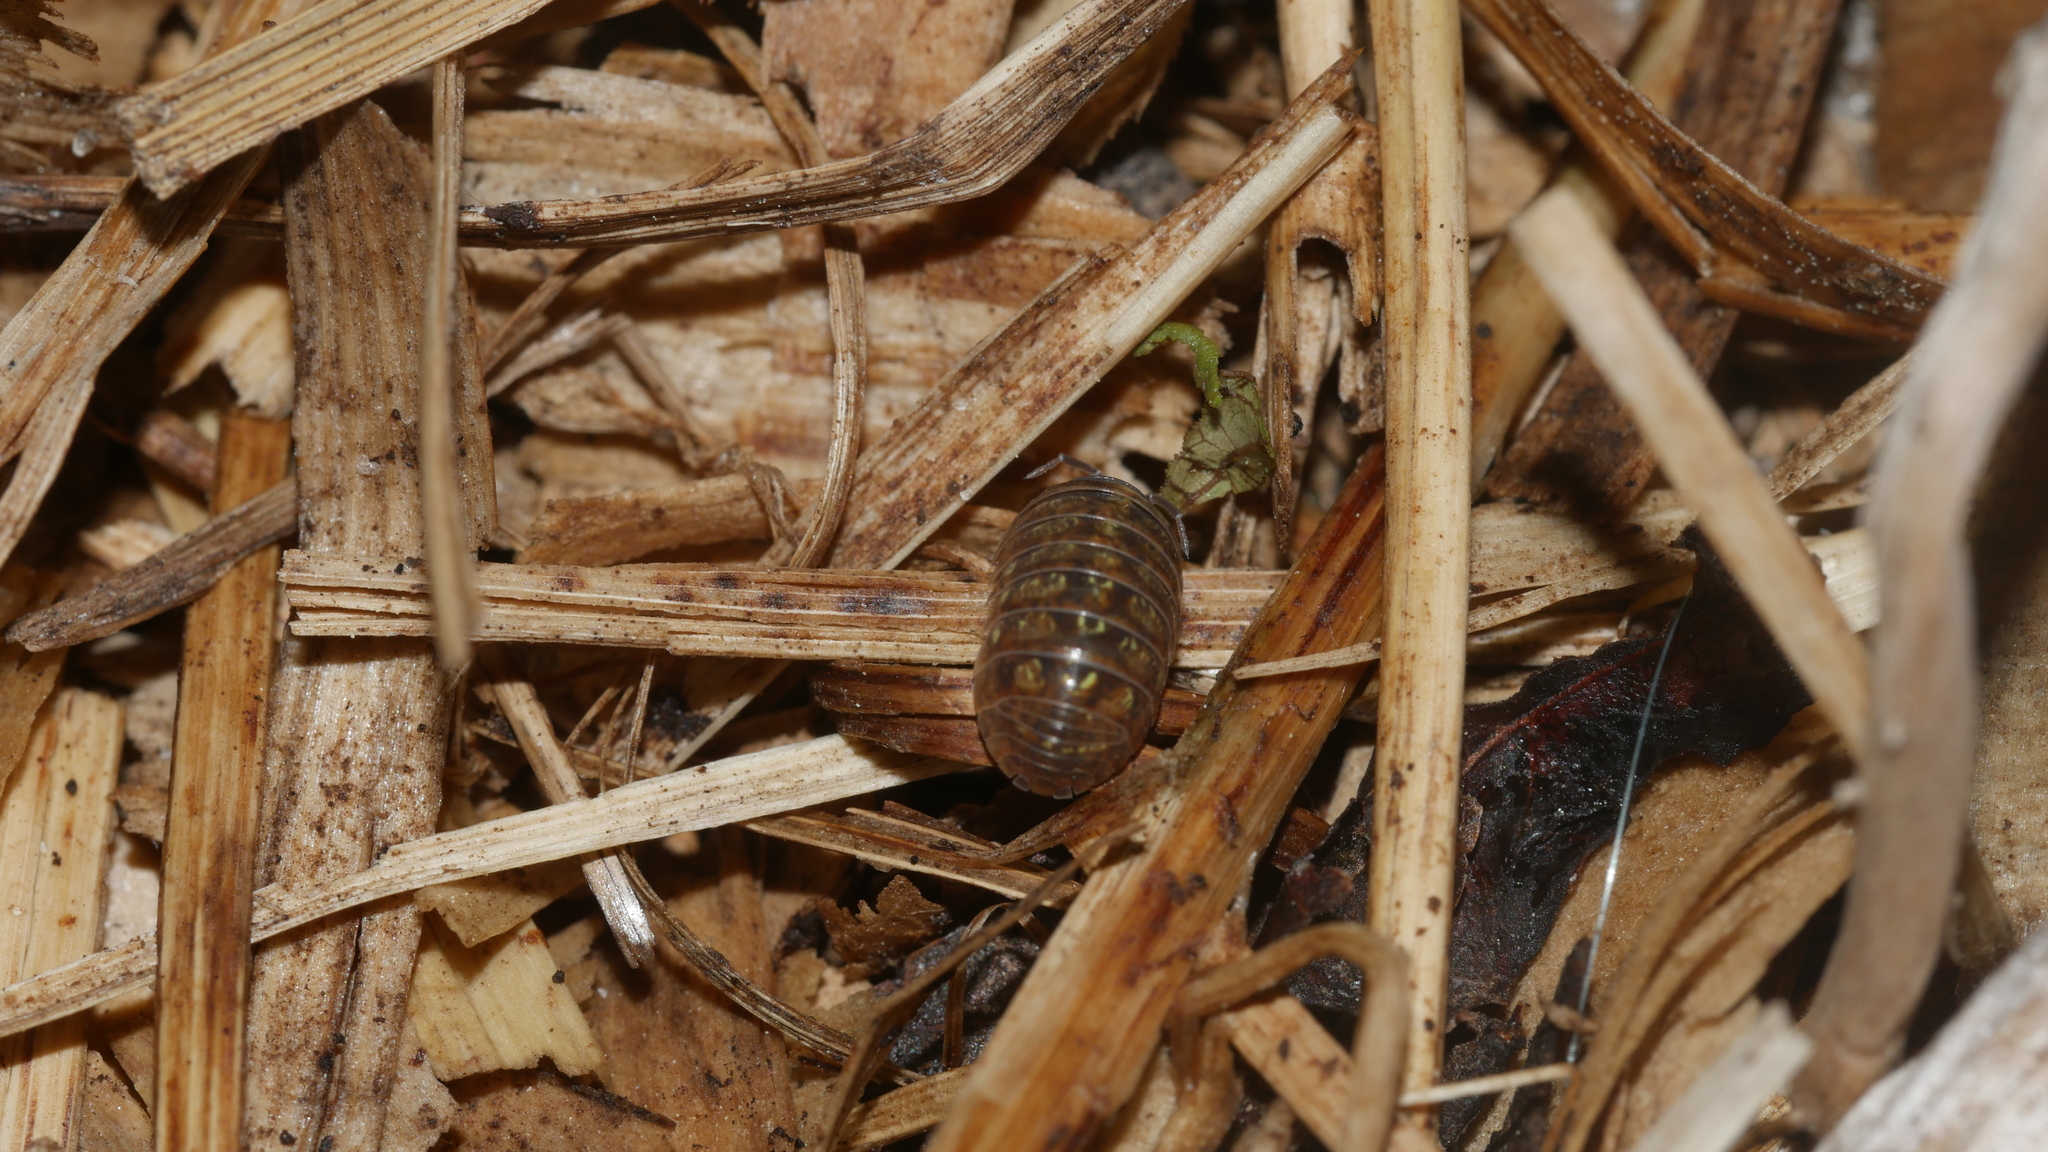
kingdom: Animalia
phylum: Arthropoda
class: Malacostraca
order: Isopoda
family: Armadillidiidae
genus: Armadillidium
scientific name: Armadillidium vulgare
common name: Common pill woodlouse
